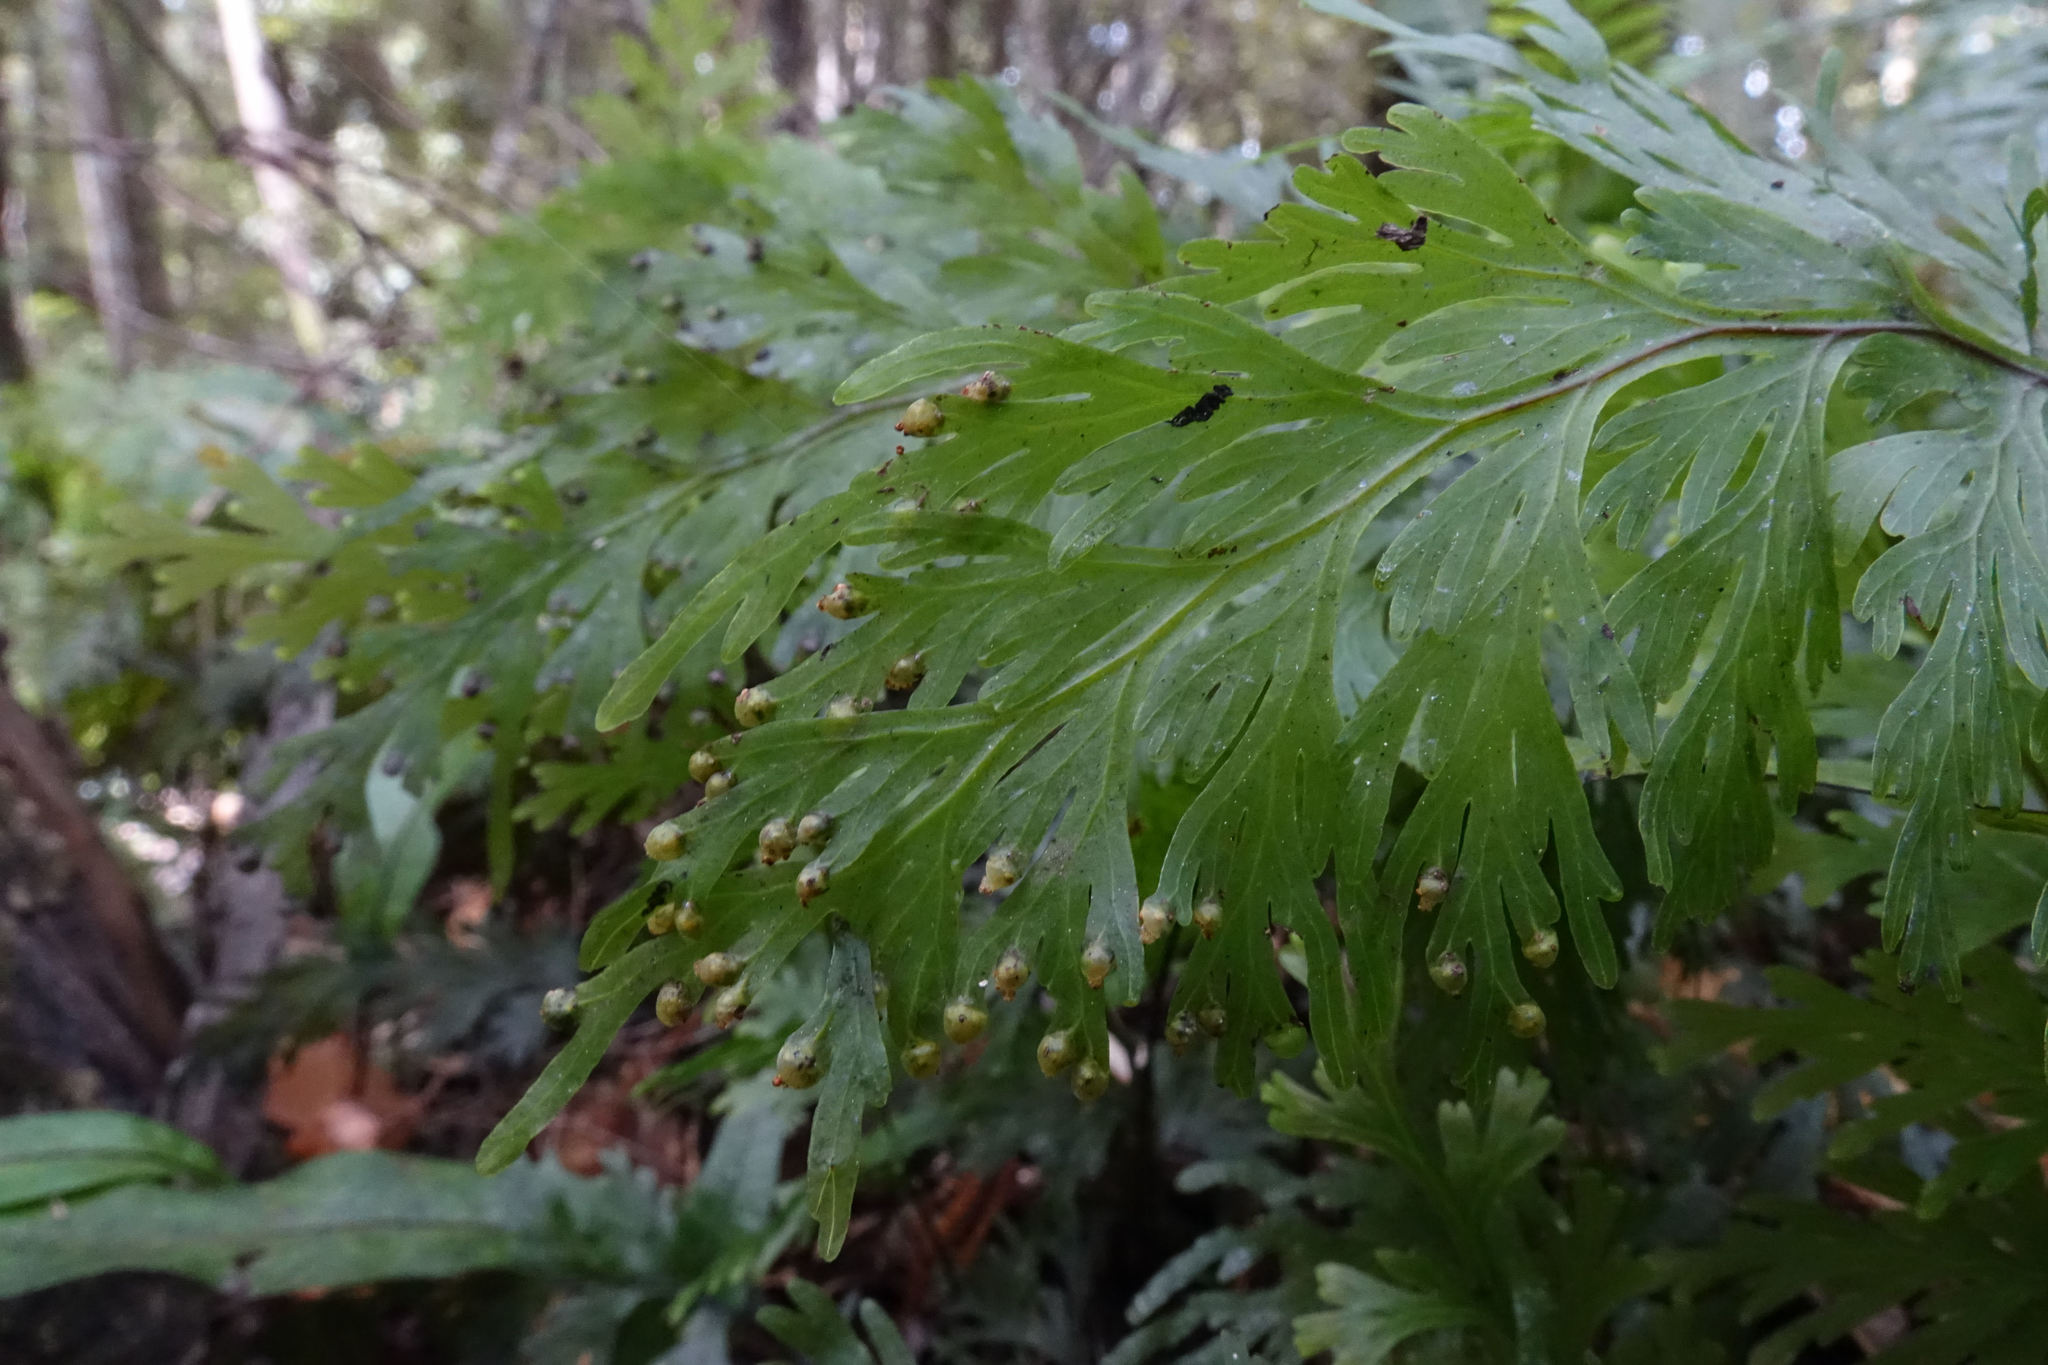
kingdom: Plantae
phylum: Tracheophyta
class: Polypodiopsida
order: Hymenophyllales
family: Hymenophyllaceae
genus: Hymenophyllum
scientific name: Hymenophyllum dilatatum
